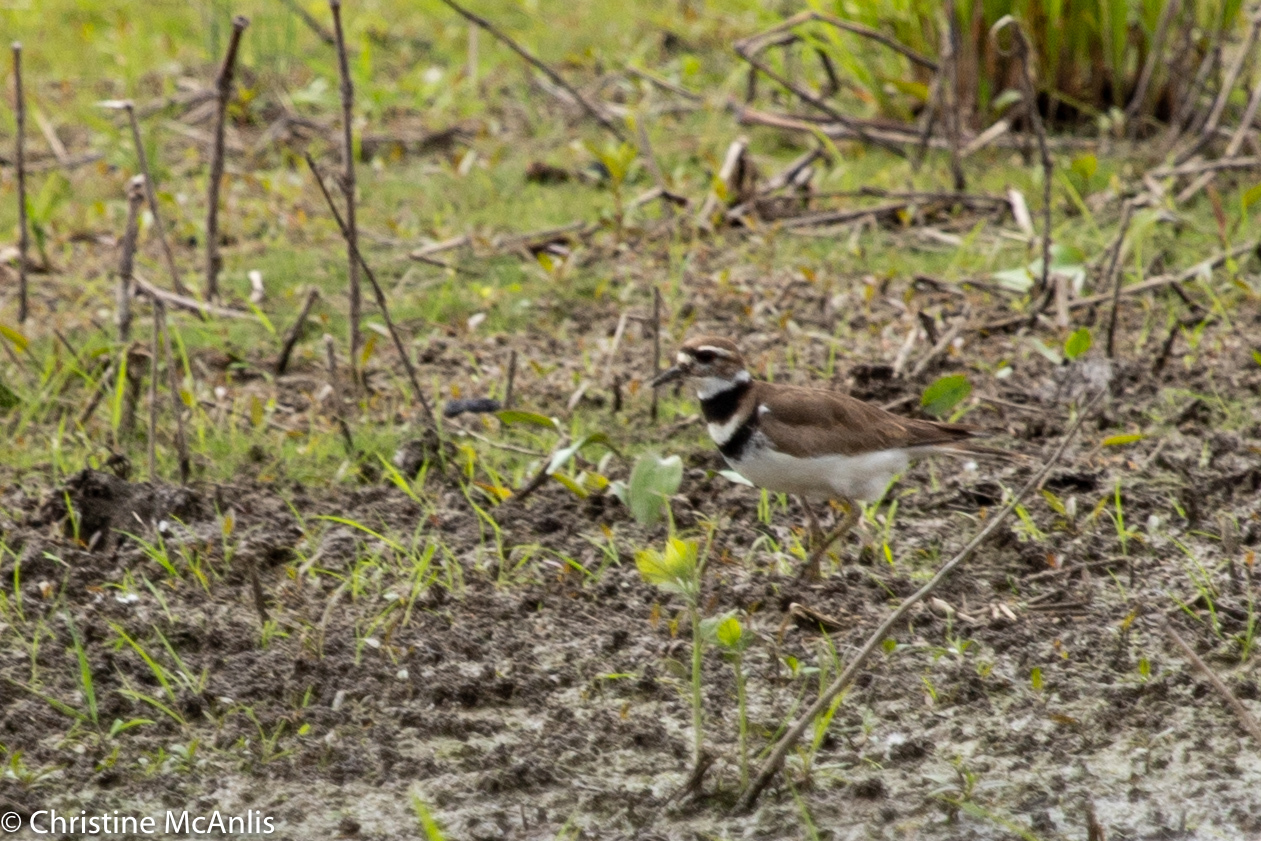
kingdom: Animalia
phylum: Chordata
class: Aves
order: Charadriiformes
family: Charadriidae
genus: Charadrius
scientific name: Charadrius vociferus
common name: Killdeer
